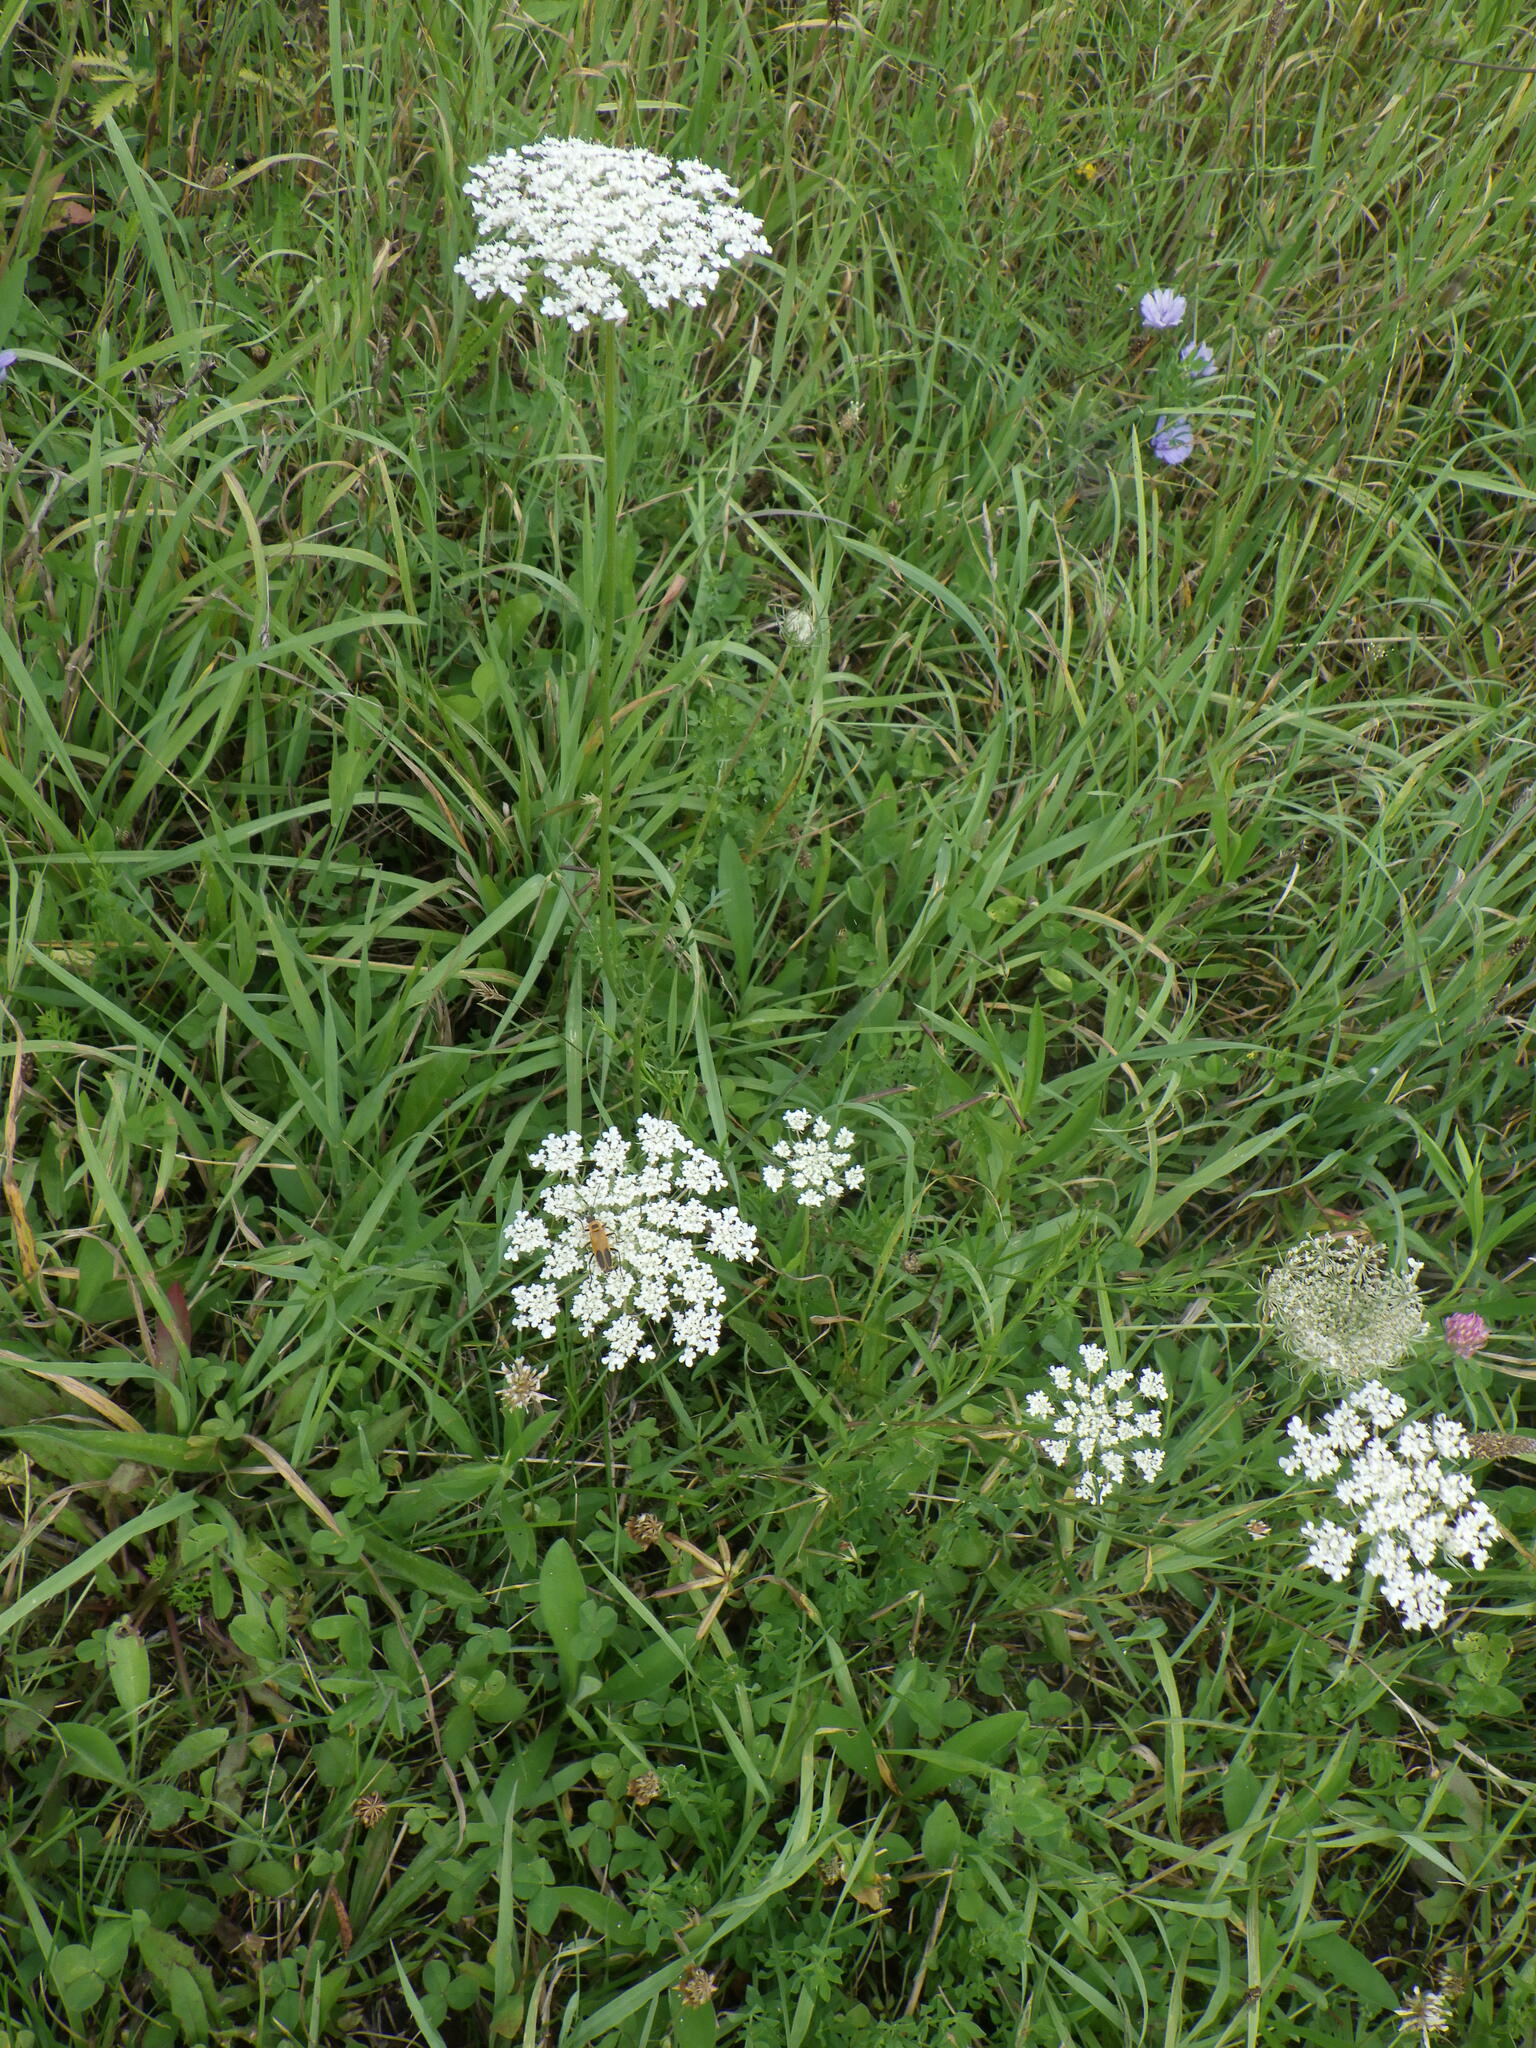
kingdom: Plantae
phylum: Tracheophyta
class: Magnoliopsida
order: Apiales
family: Apiaceae
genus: Daucus
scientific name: Daucus carota
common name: Wild carrot
